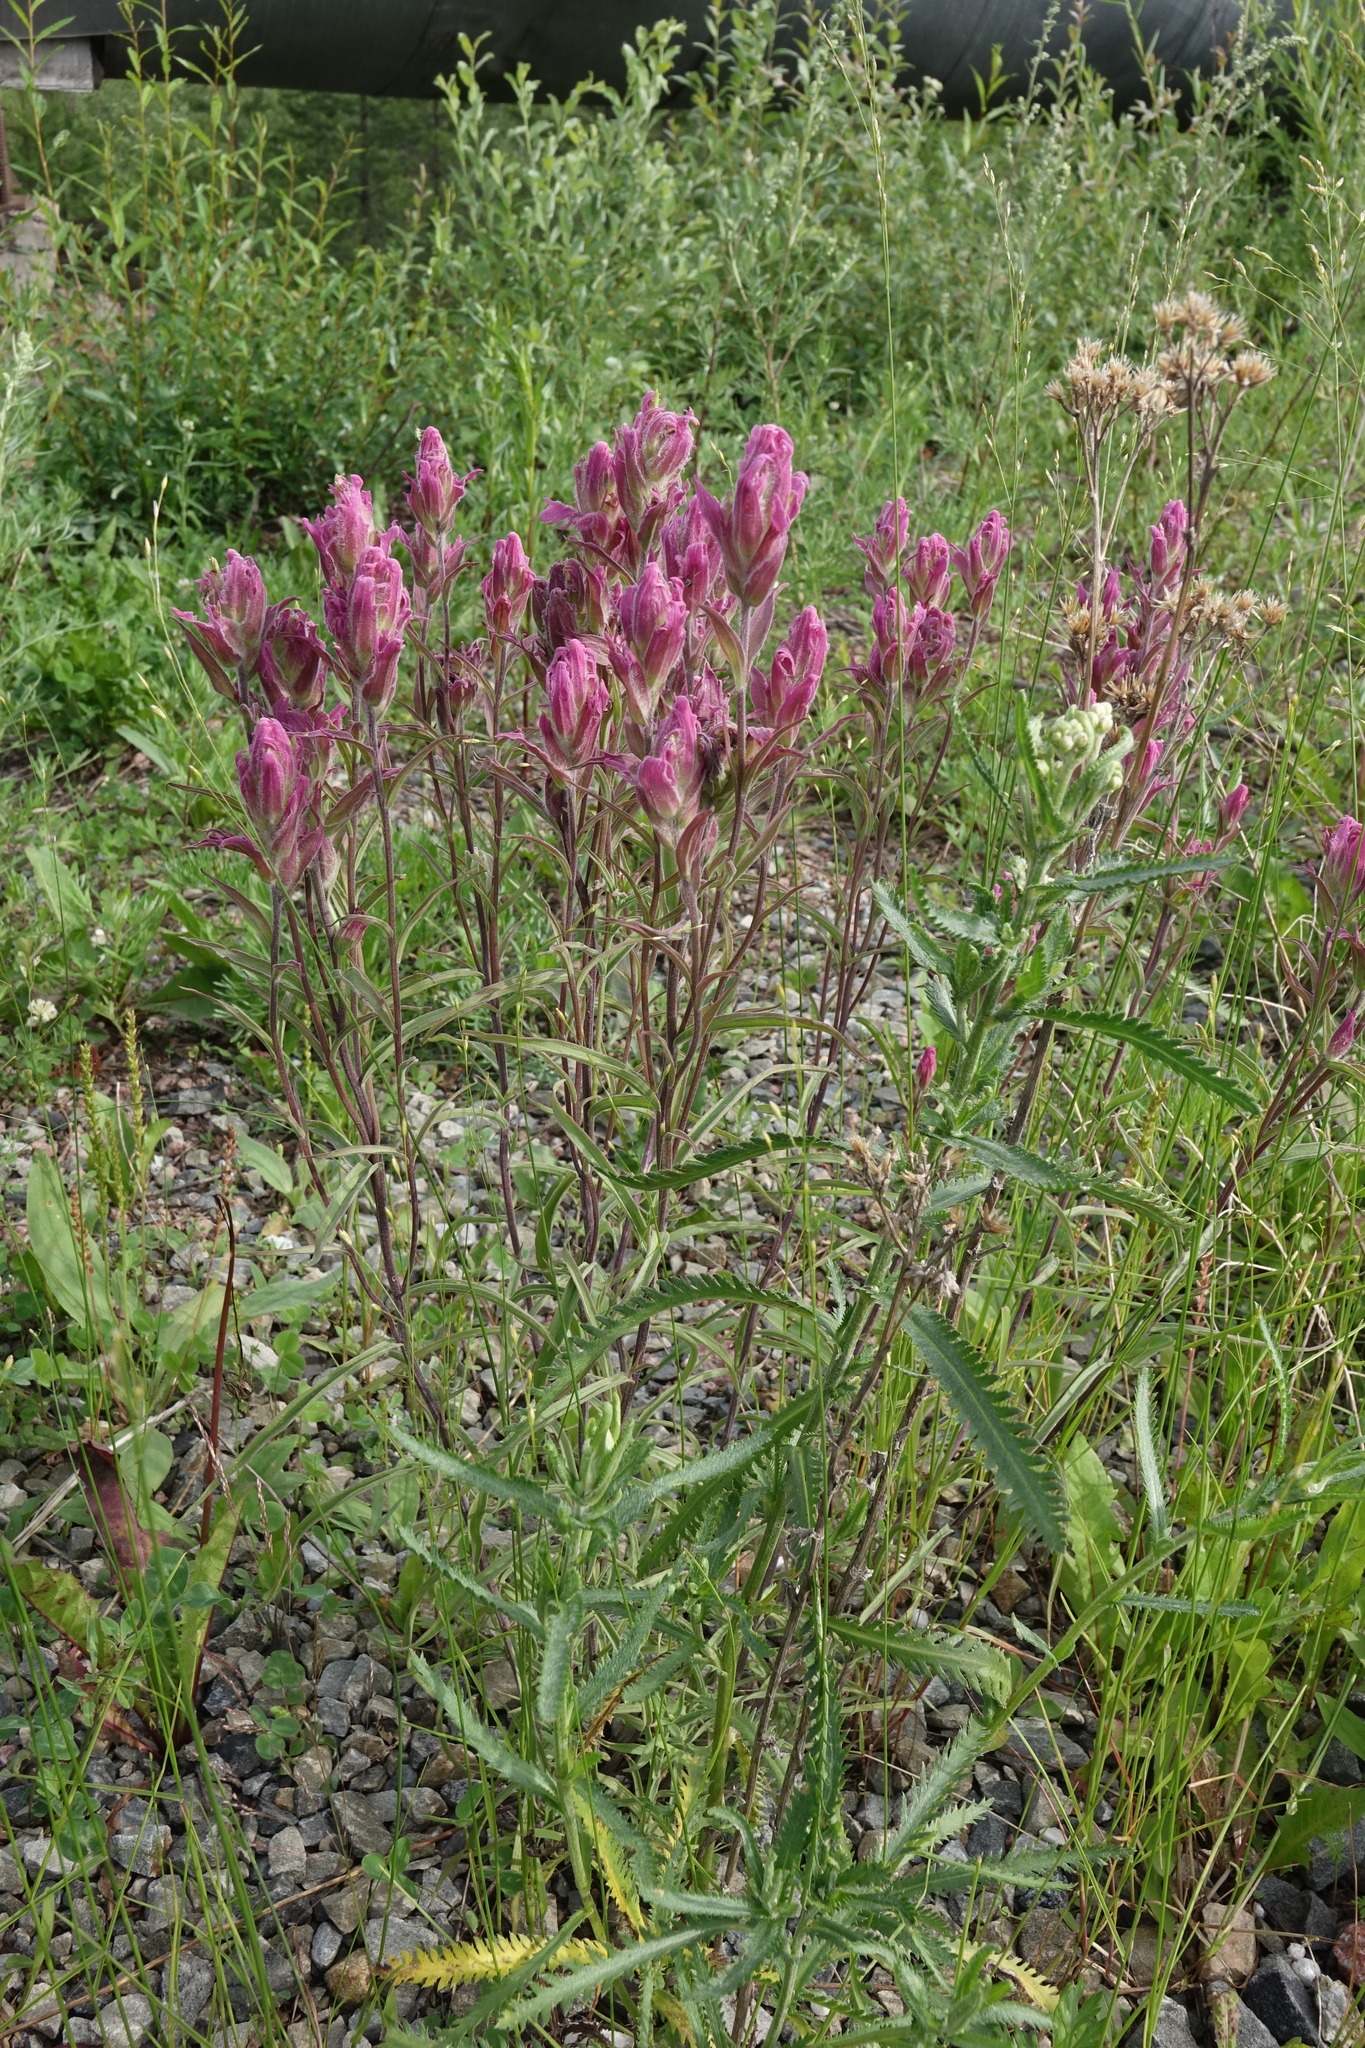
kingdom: Plantae
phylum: Tracheophyta
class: Magnoliopsida
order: Lamiales
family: Orobanchaceae
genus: Castilleja
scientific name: Castilleja rubra
